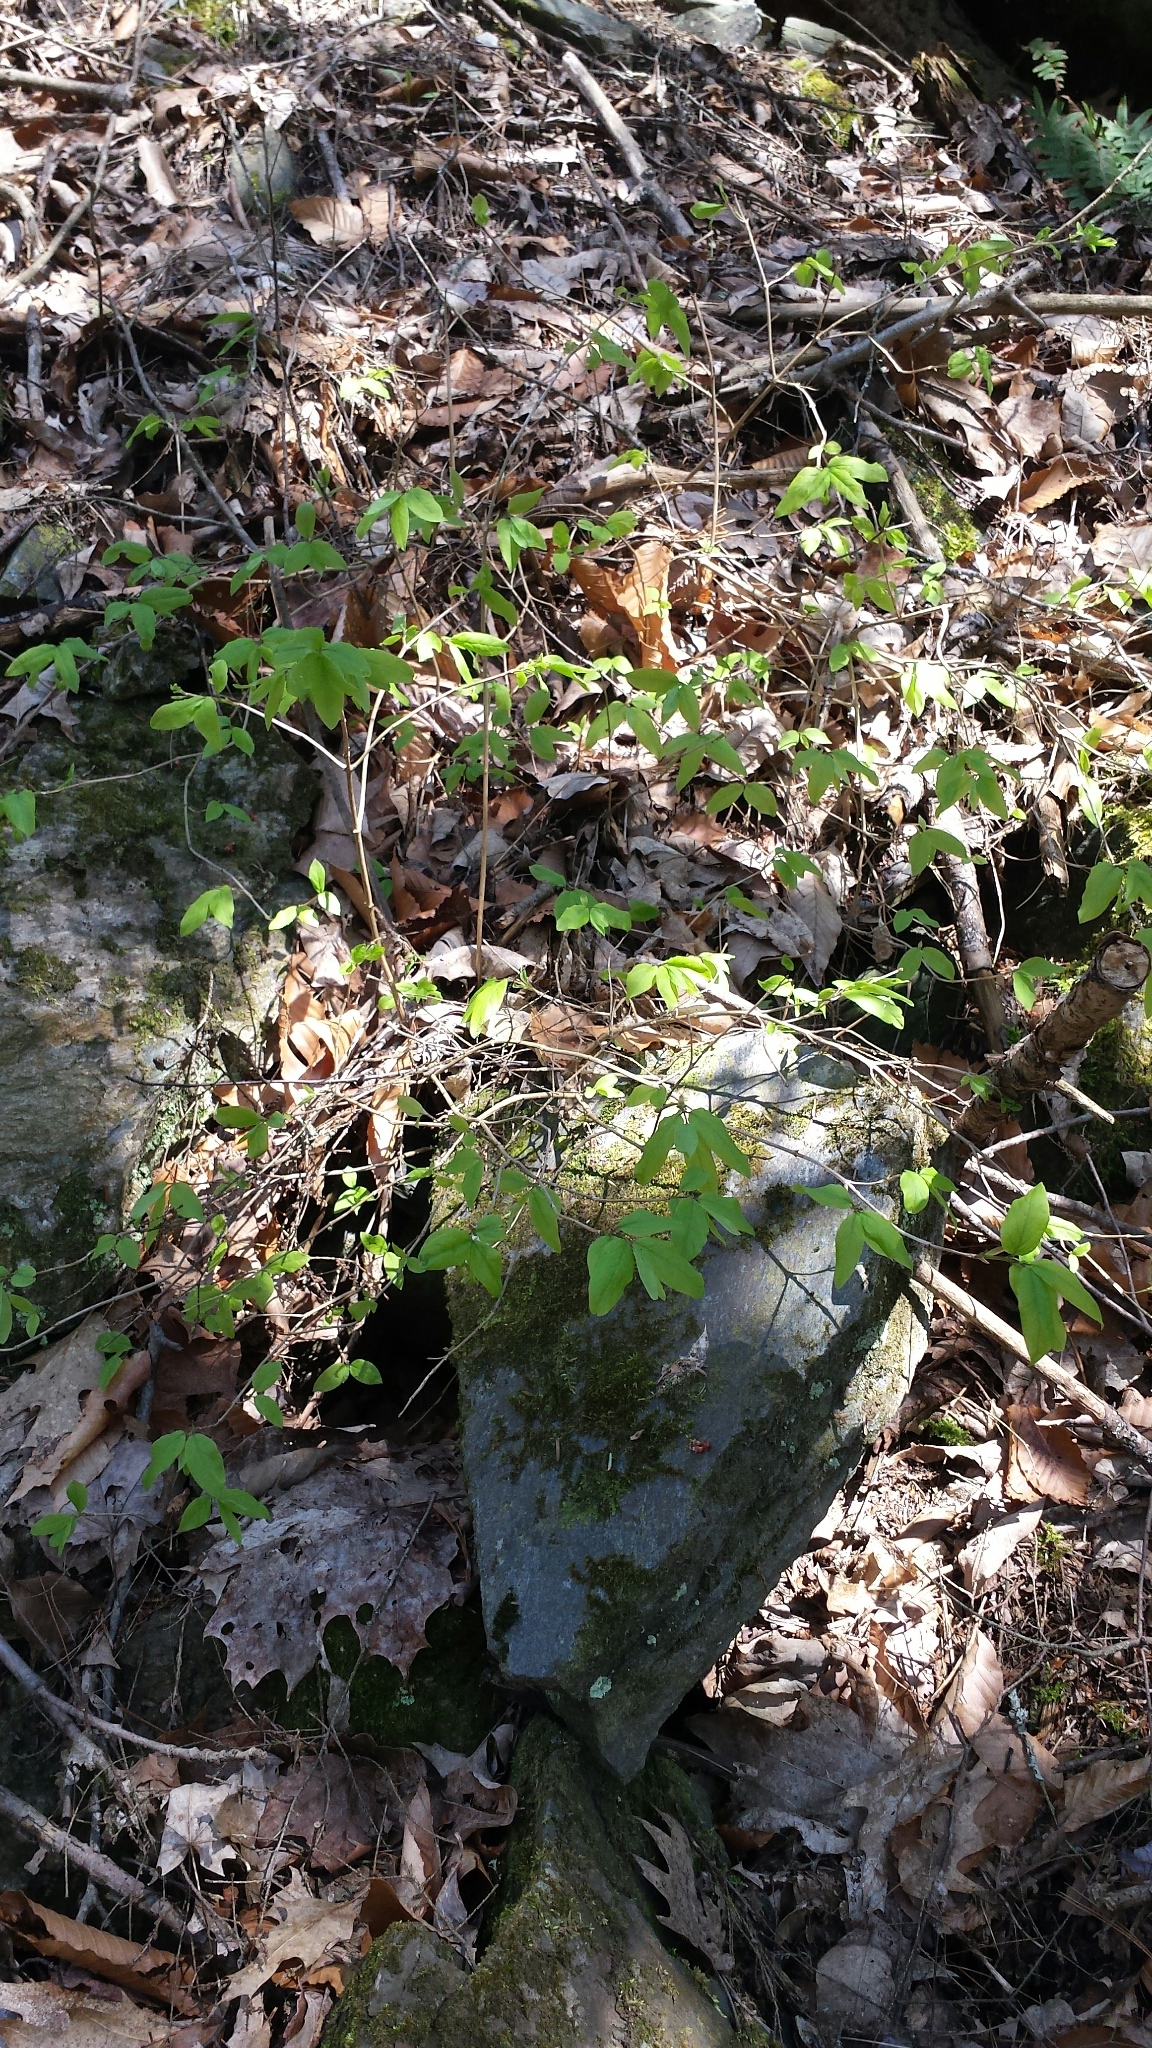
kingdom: Plantae
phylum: Tracheophyta
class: Magnoliopsida
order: Dipsacales
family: Caprifoliaceae
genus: Lonicera
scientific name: Lonicera canadensis
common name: American fly-honeysuckle
